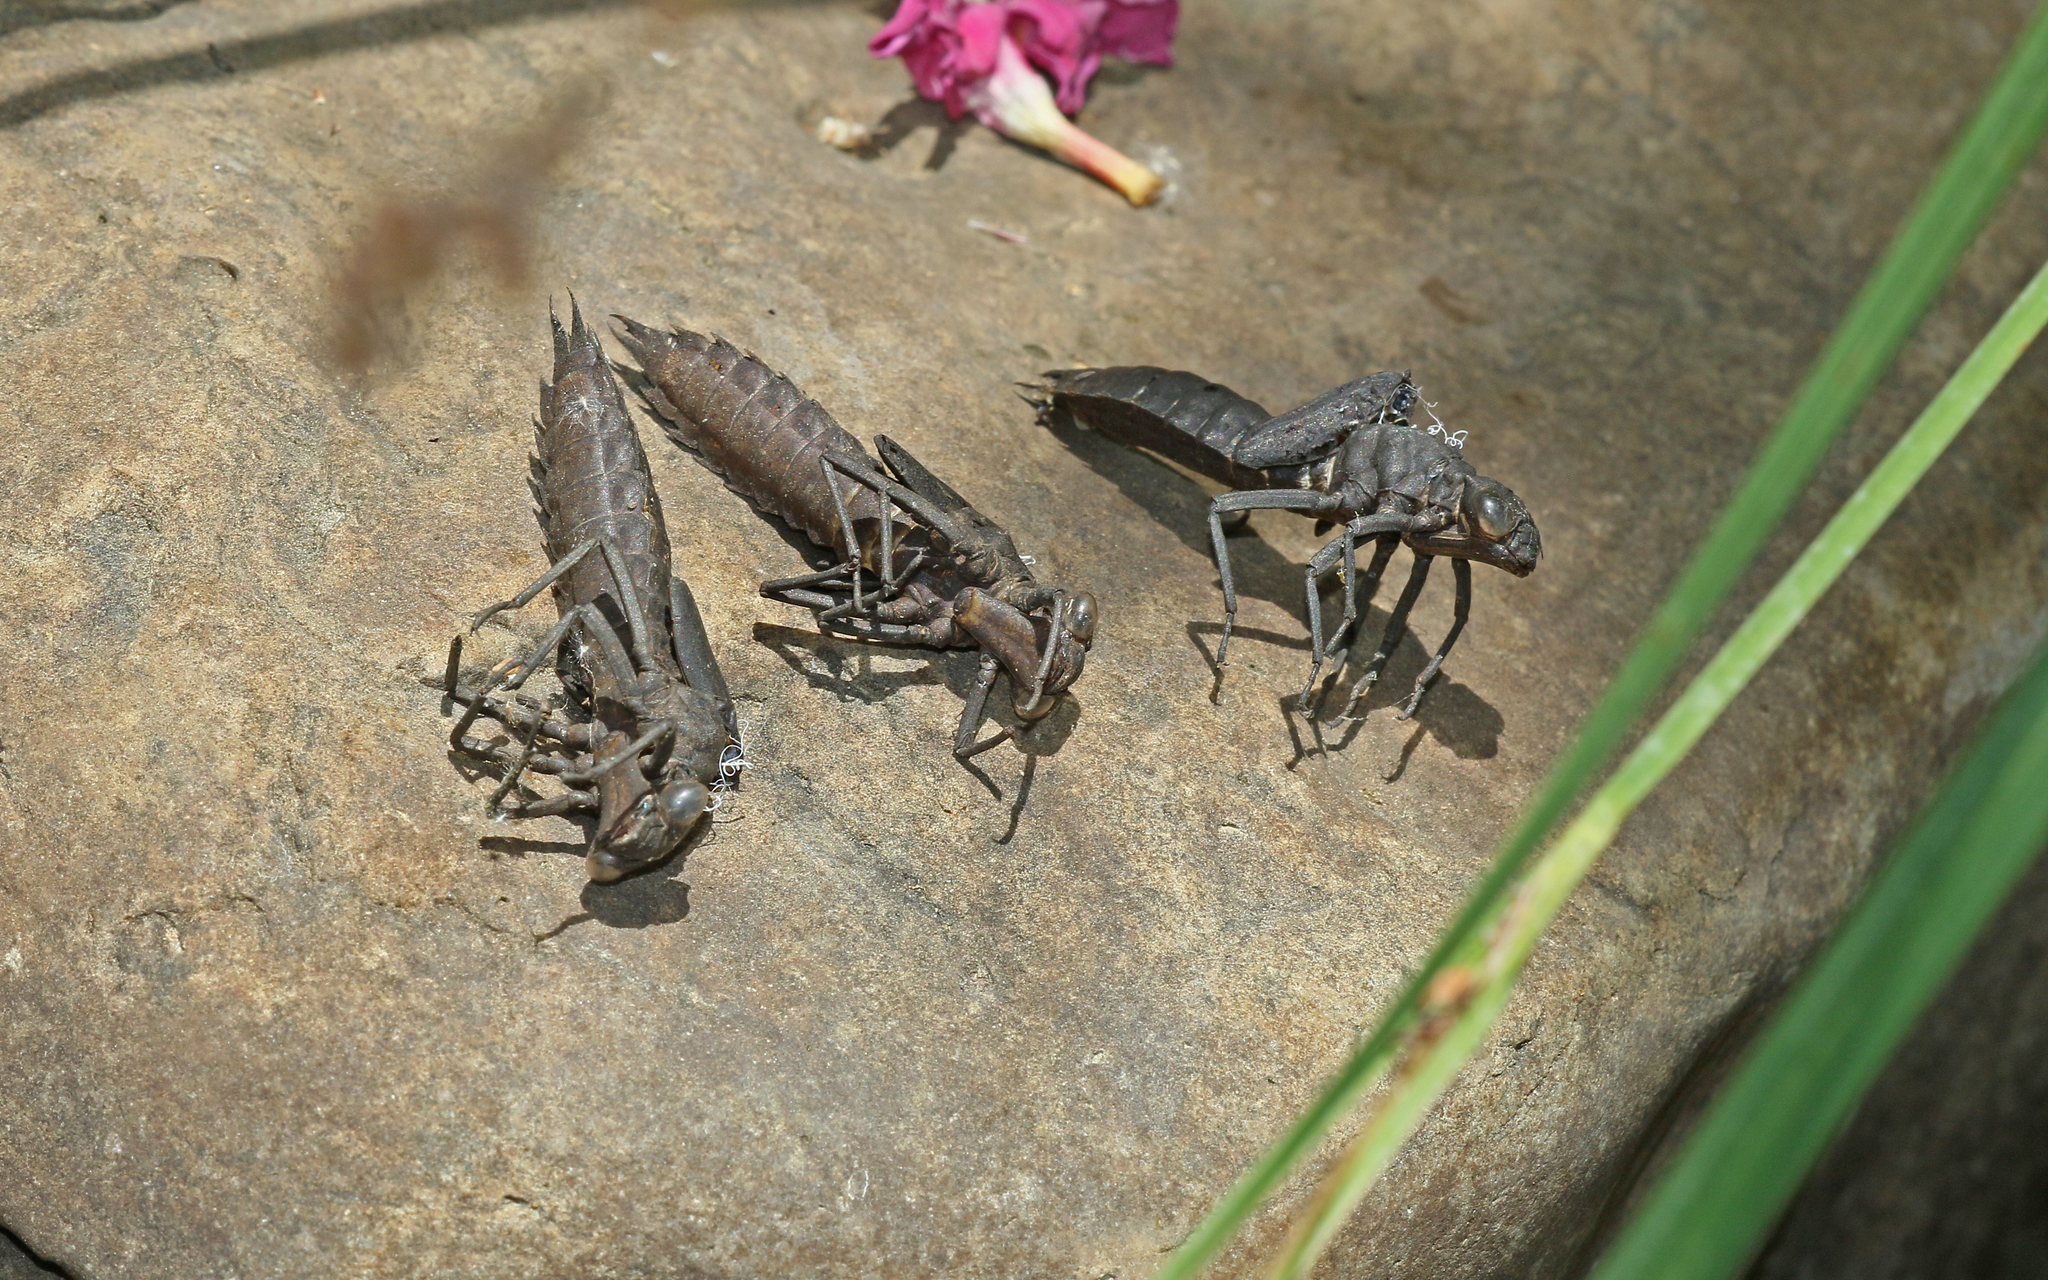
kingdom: Animalia
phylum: Arthropoda
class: Insecta
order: Odonata
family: Aeshnidae
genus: Boyeria
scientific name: Boyeria irene
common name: Western spectre
